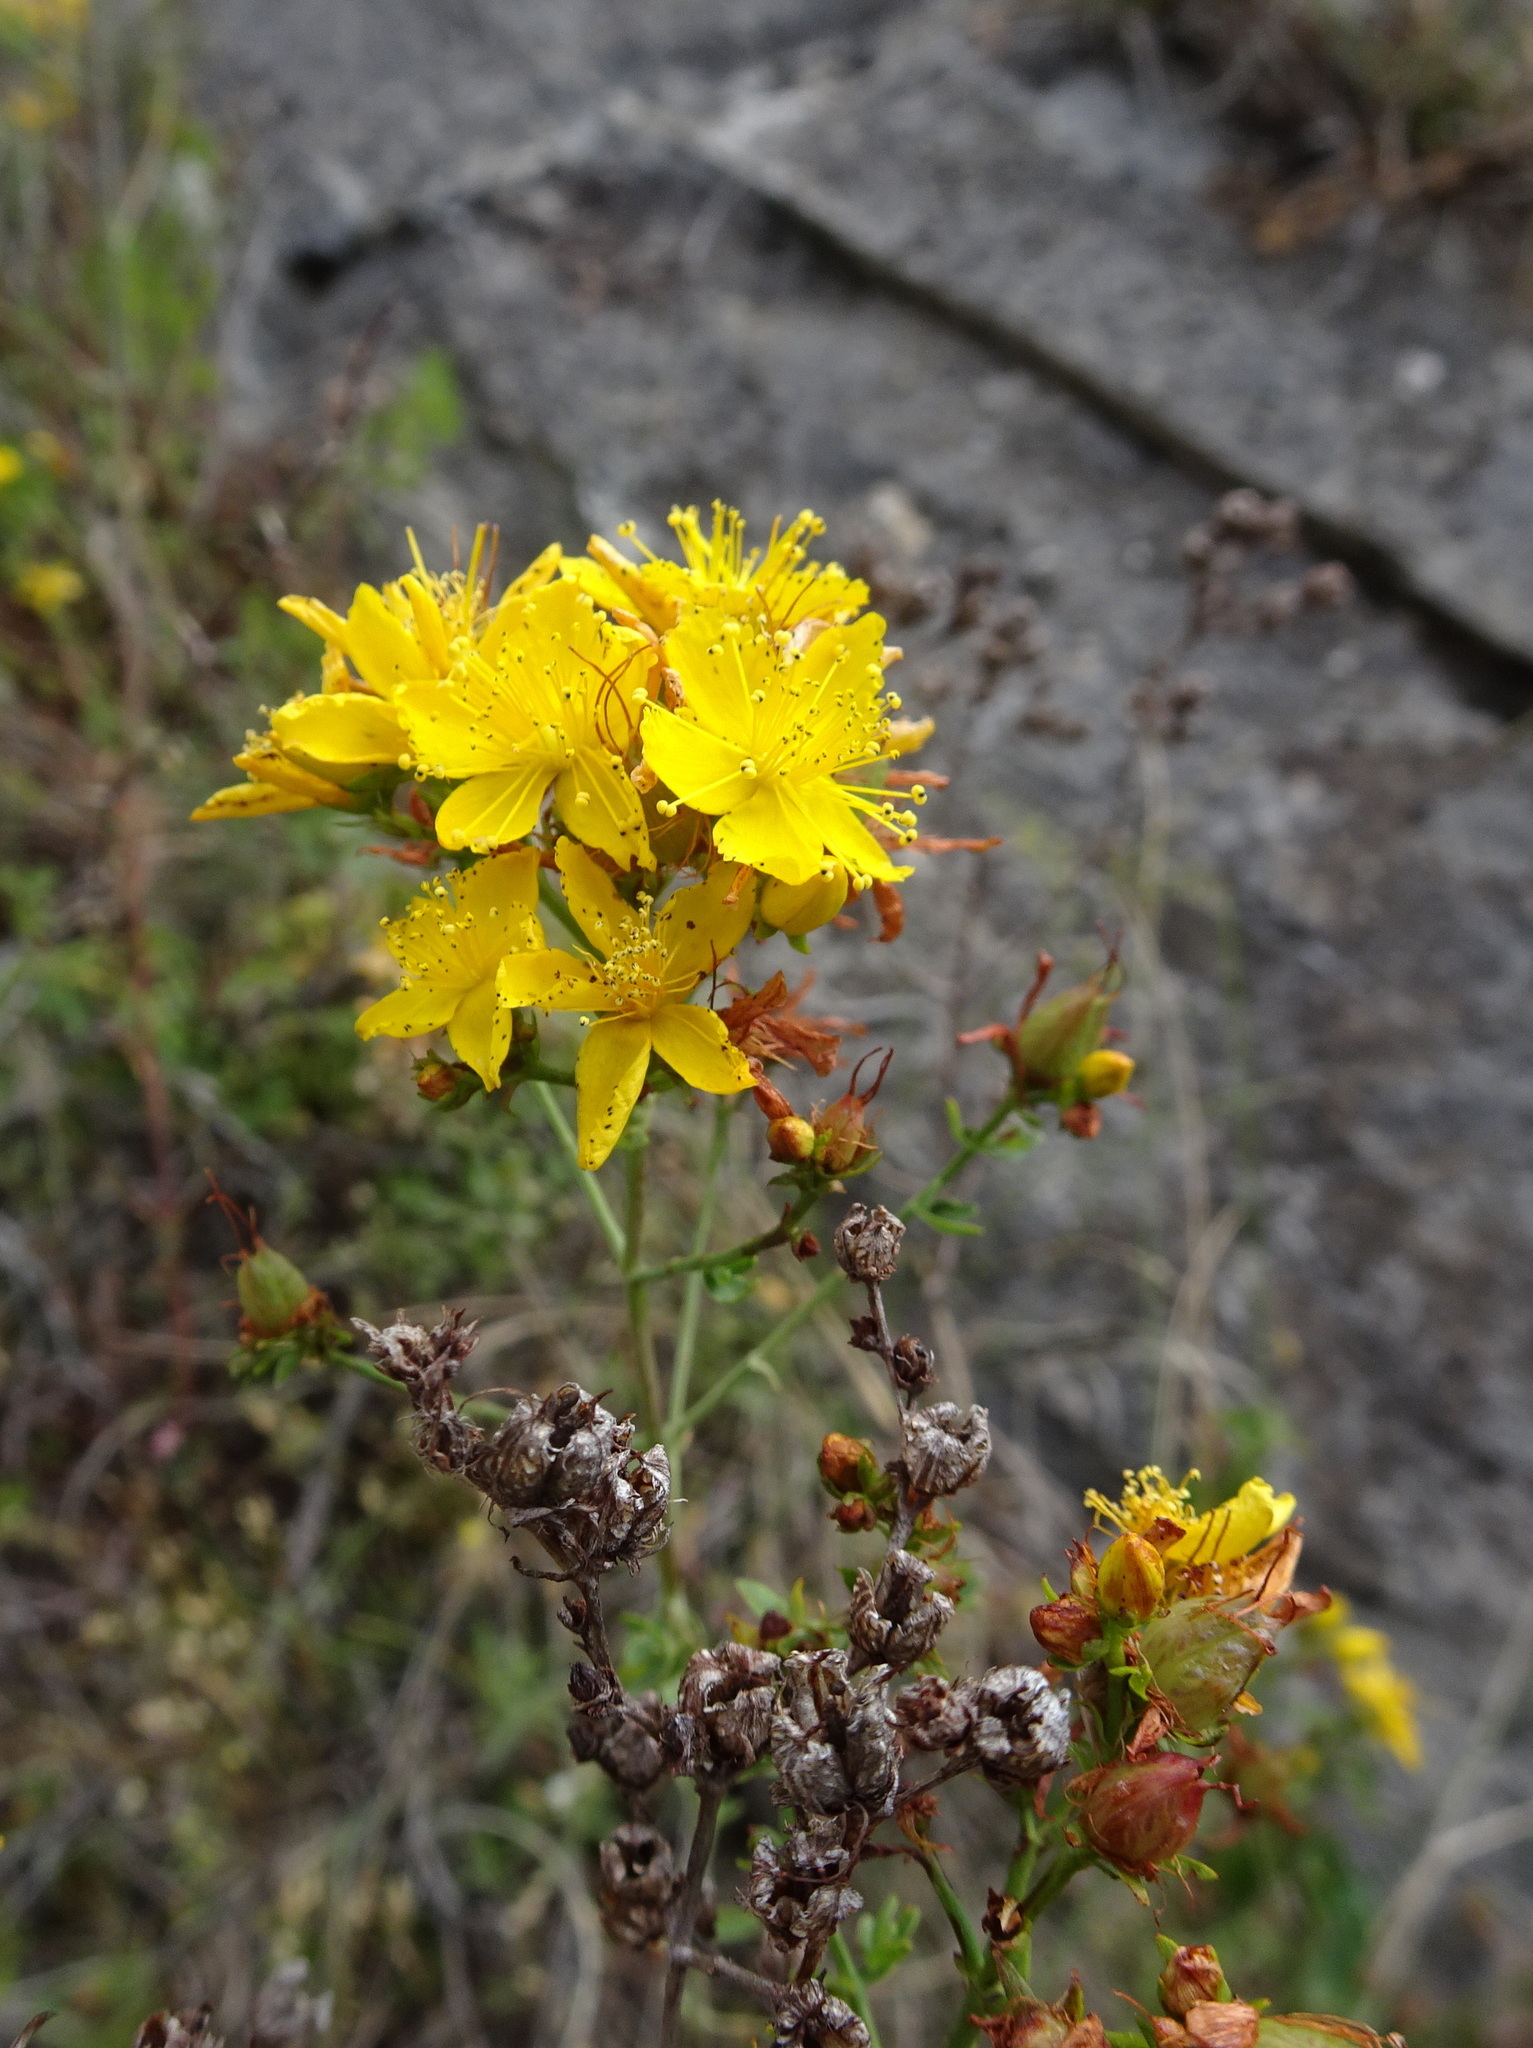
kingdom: Plantae
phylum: Tracheophyta
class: Magnoliopsida
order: Malpighiales
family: Hypericaceae
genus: Hypericum
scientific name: Hypericum perforatum
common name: Common st. johnswort
